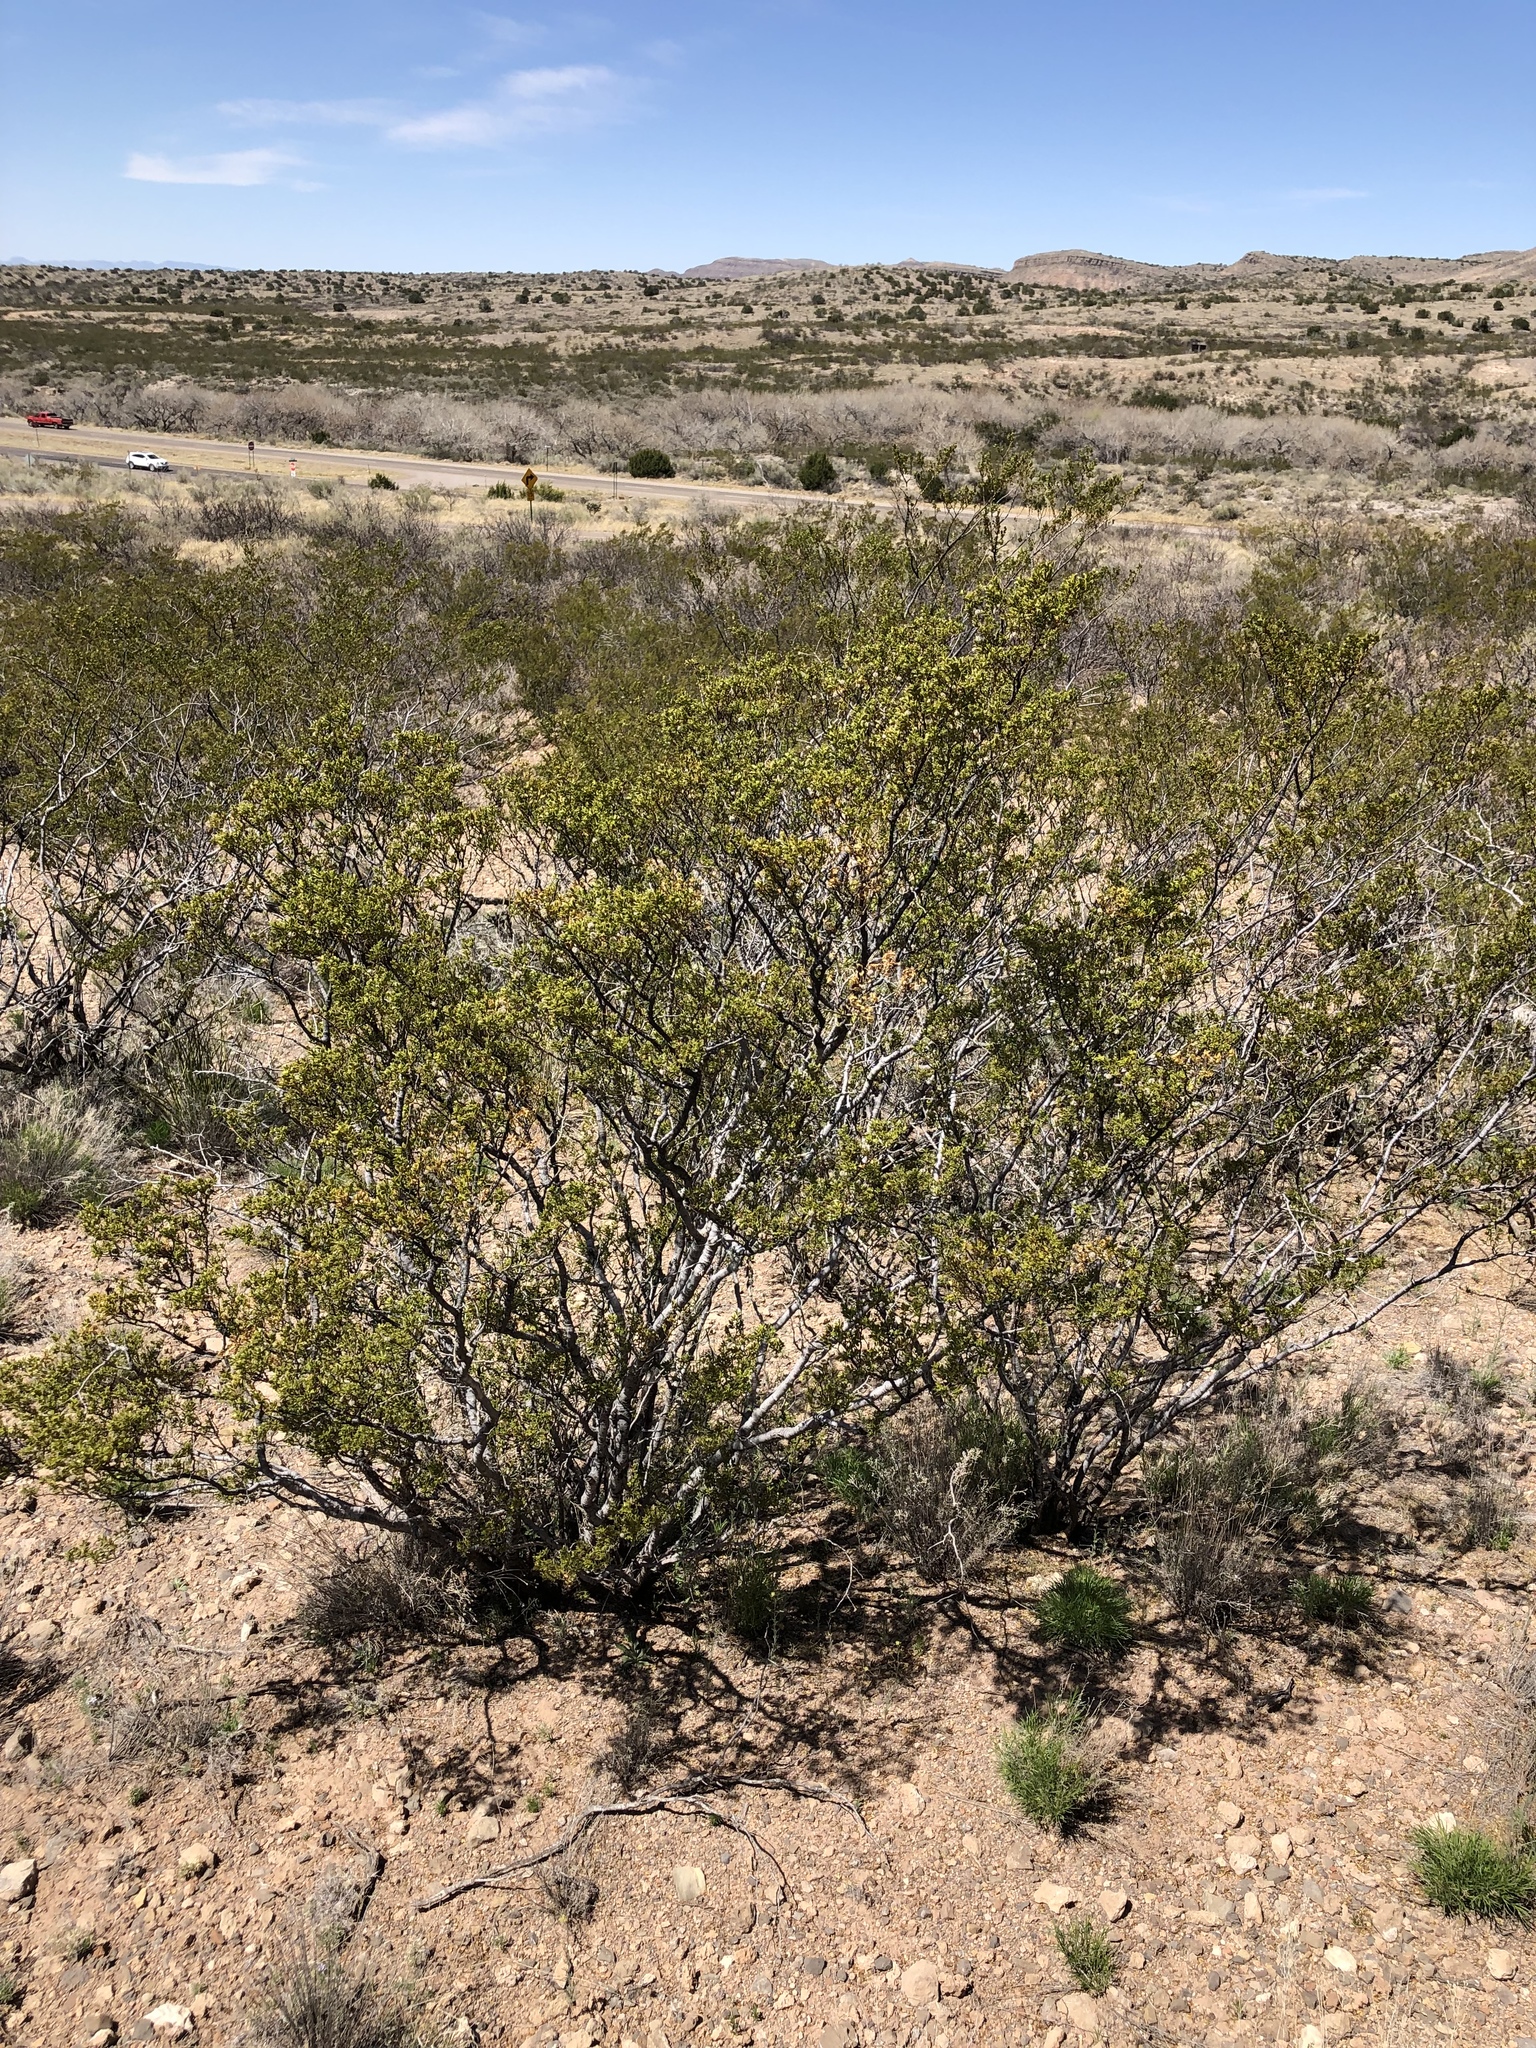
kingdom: Plantae
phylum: Tracheophyta
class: Magnoliopsida
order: Zygophyllales
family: Zygophyllaceae
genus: Larrea
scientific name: Larrea tridentata
